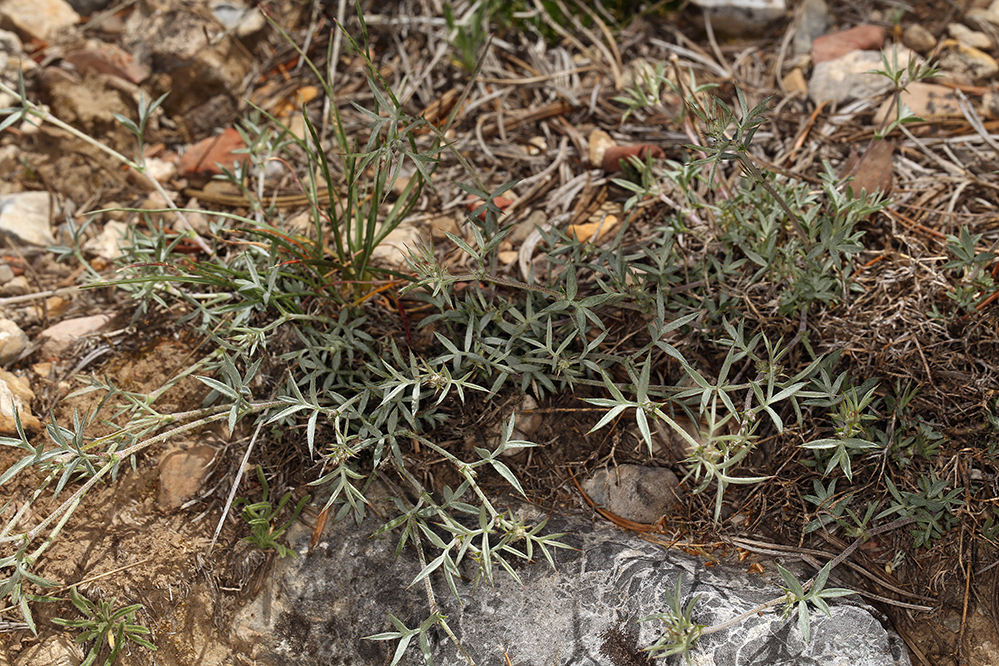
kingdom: Plantae
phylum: Tracheophyta
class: Magnoliopsida
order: Fabales
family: Fabaceae
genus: Astragalus
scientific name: Astragalus kentrophyta
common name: Prickly milk-vetch
